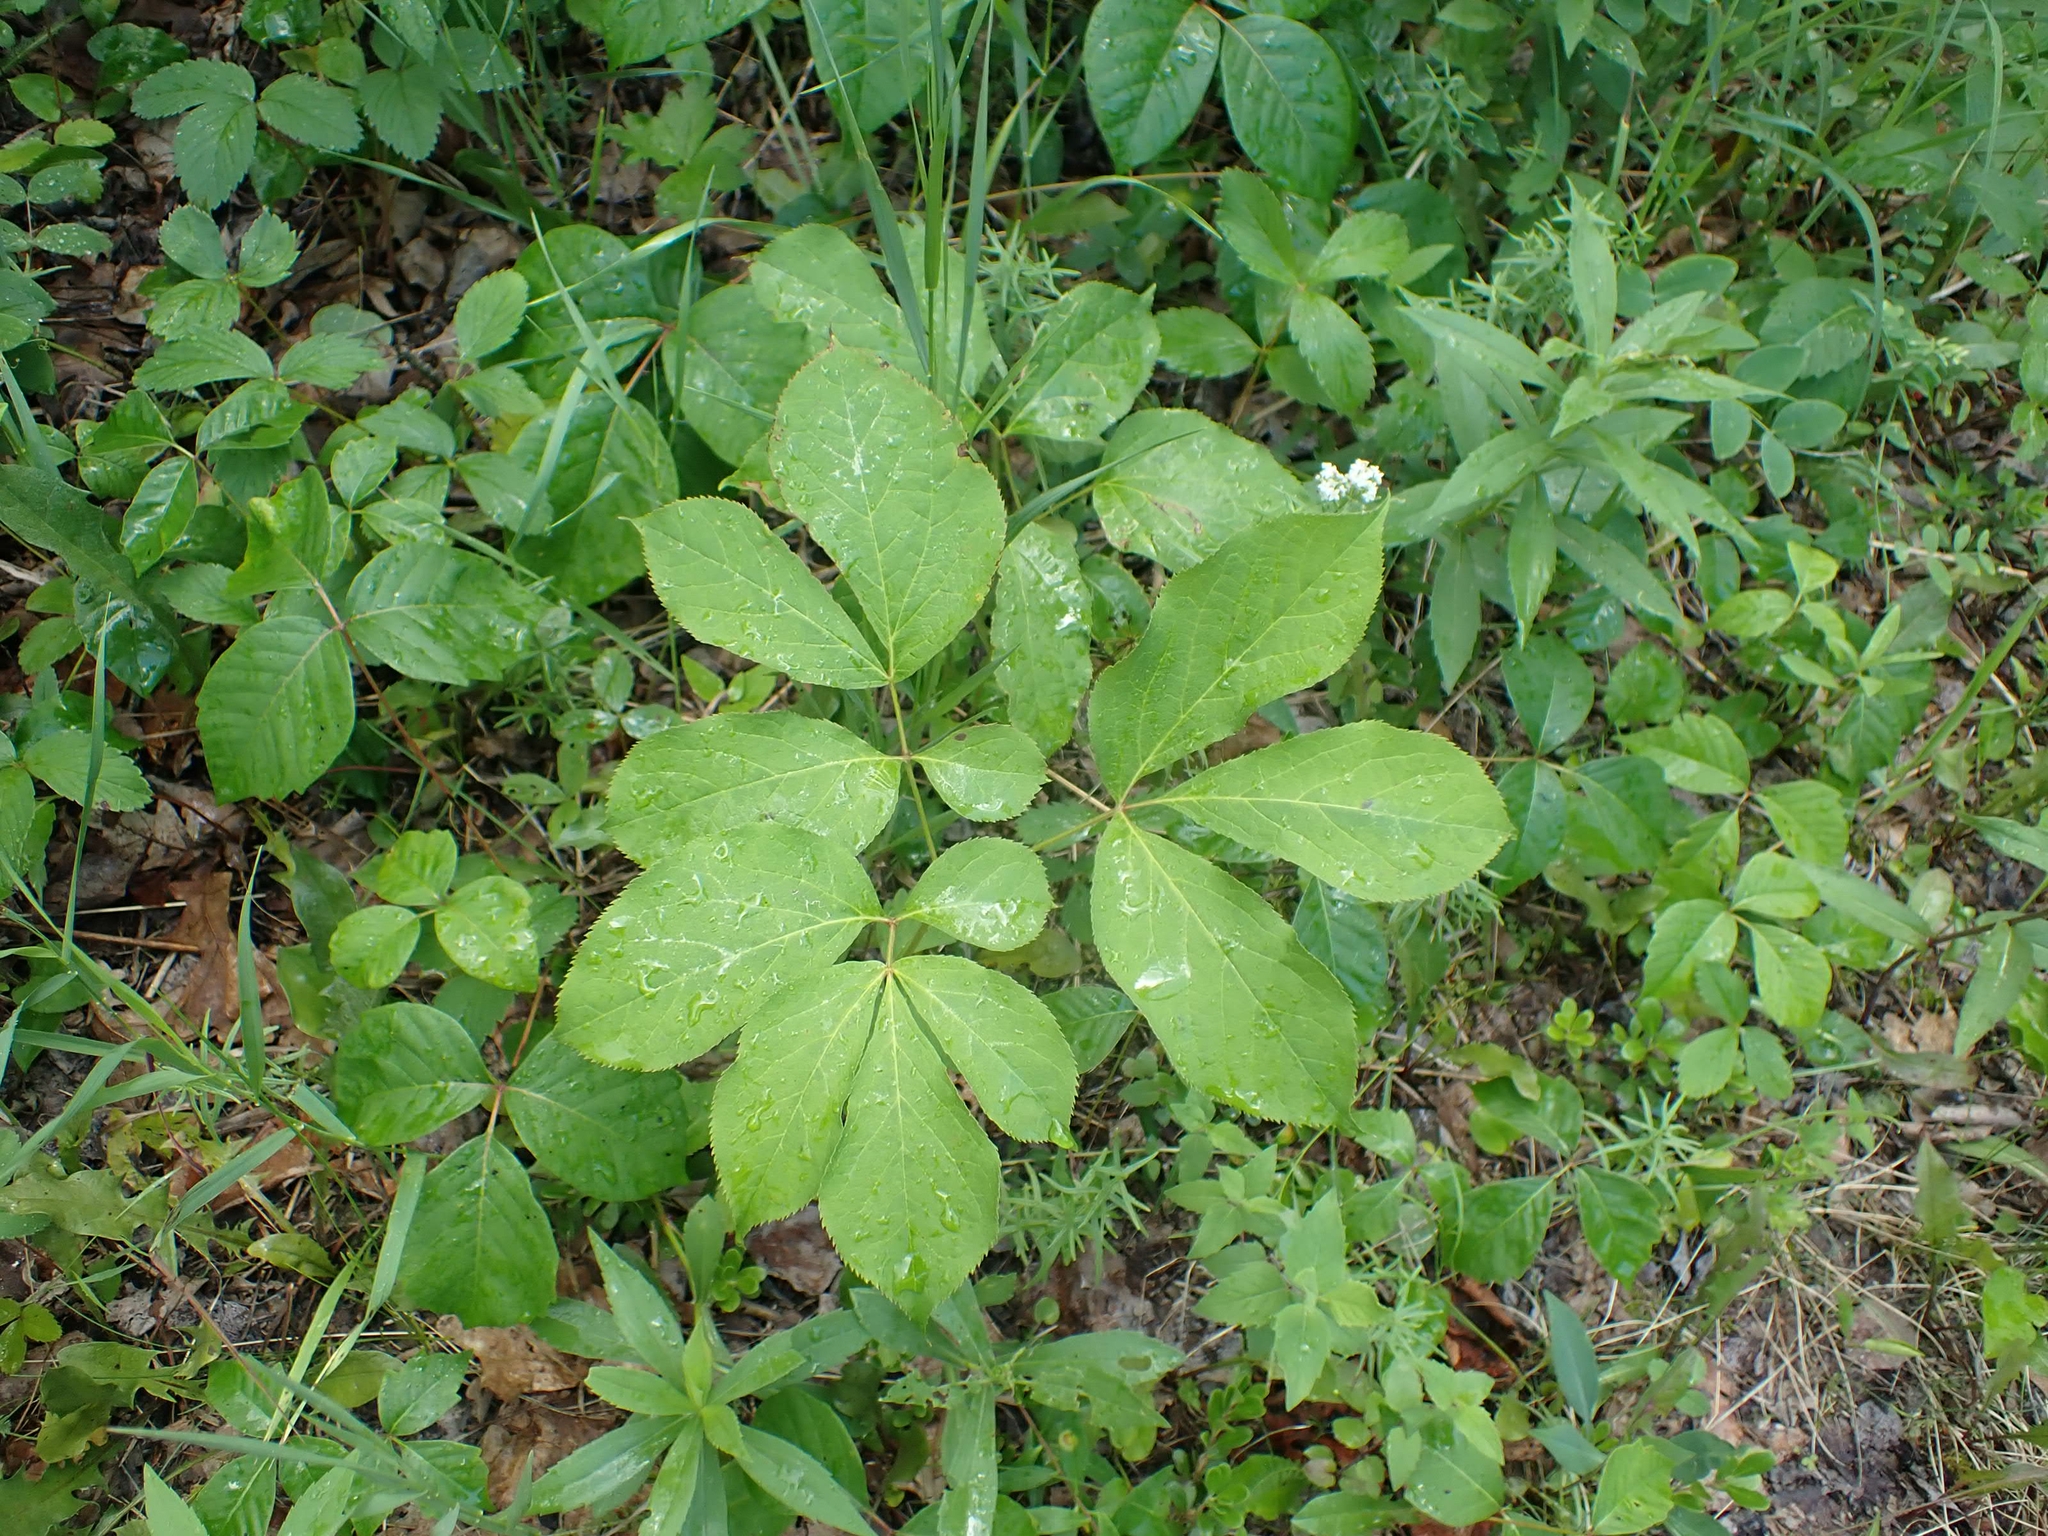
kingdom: Plantae
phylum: Tracheophyta
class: Magnoliopsida
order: Apiales
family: Araliaceae
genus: Aralia
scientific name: Aralia nudicaulis
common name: Wild sarsaparilla
